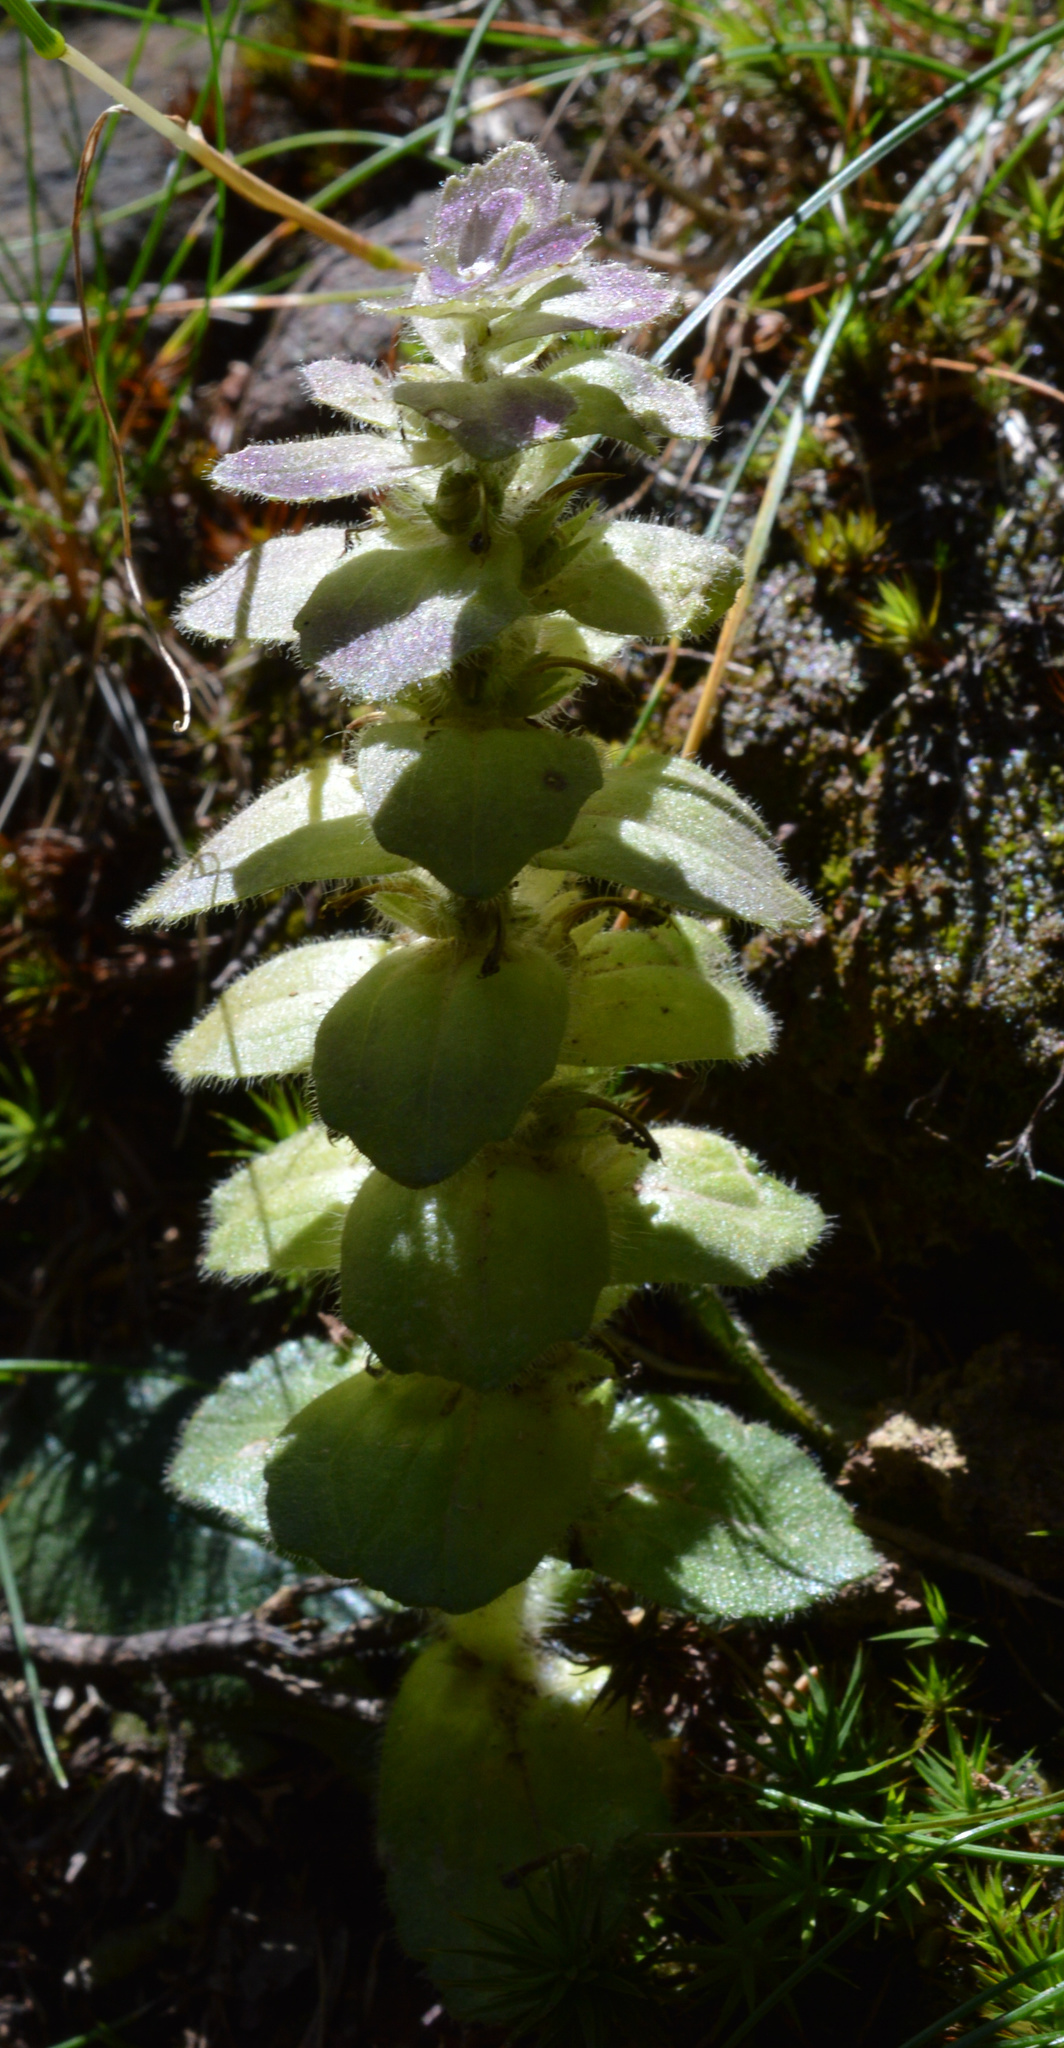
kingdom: Plantae
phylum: Tracheophyta
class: Magnoliopsida
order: Lamiales
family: Lamiaceae
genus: Ajuga
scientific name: Ajuga pyramidalis
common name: Pyramid bugle
